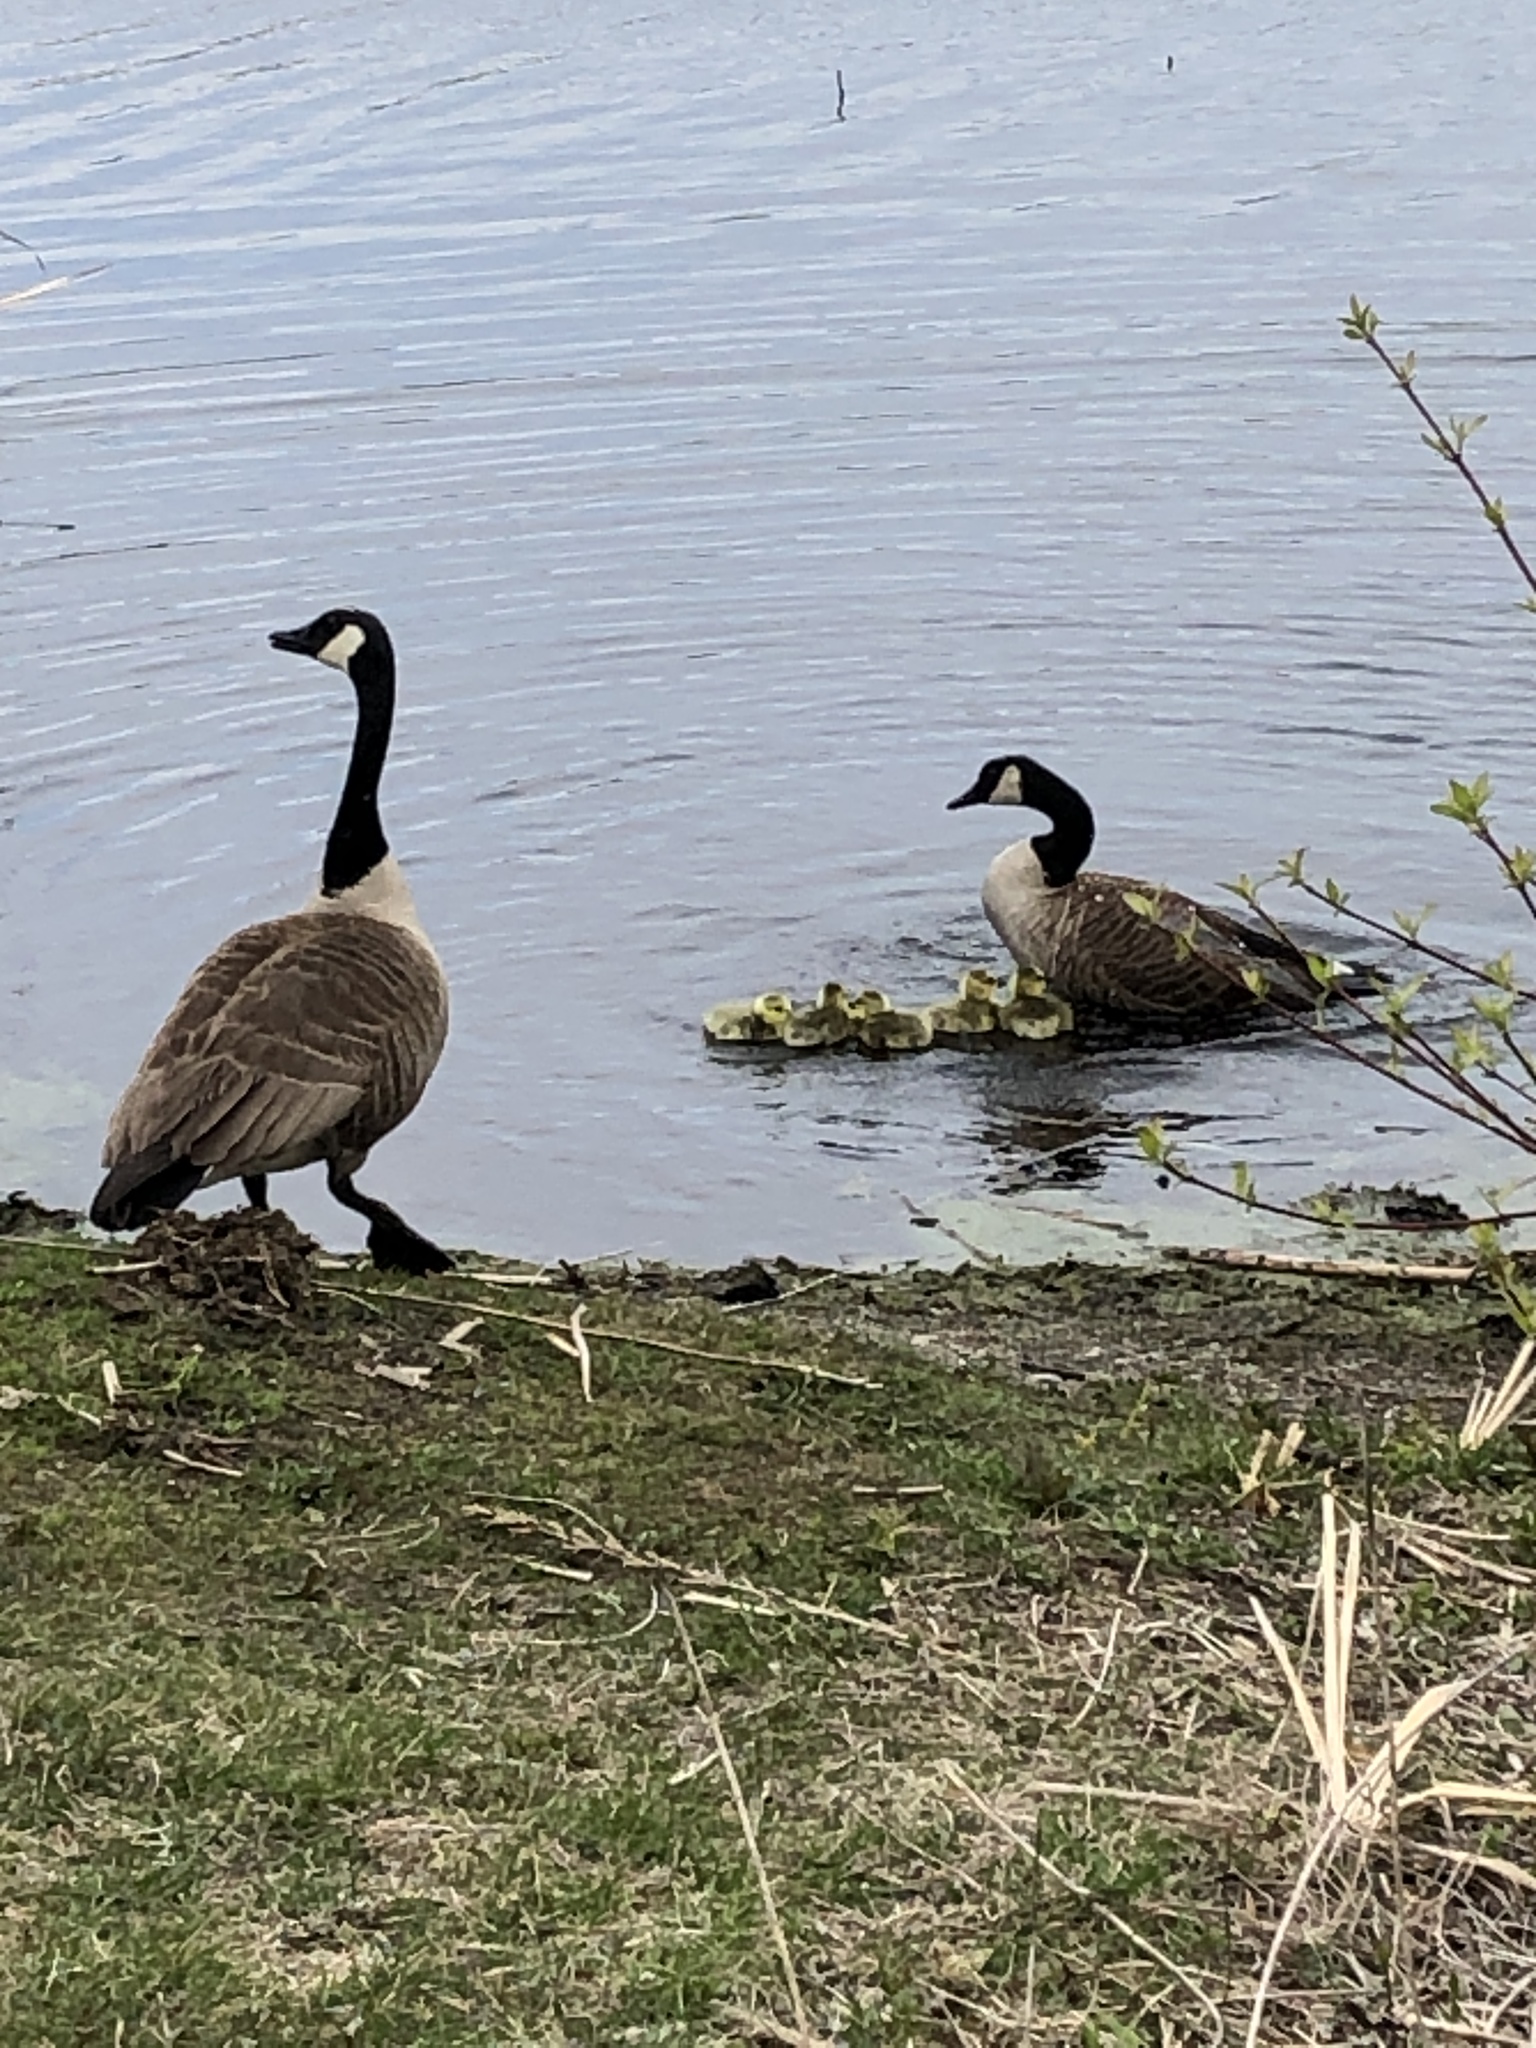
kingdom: Animalia
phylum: Chordata
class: Aves
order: Anseriformes
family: Anatidae
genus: Branta
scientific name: Branta canadensis
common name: Canada goose
